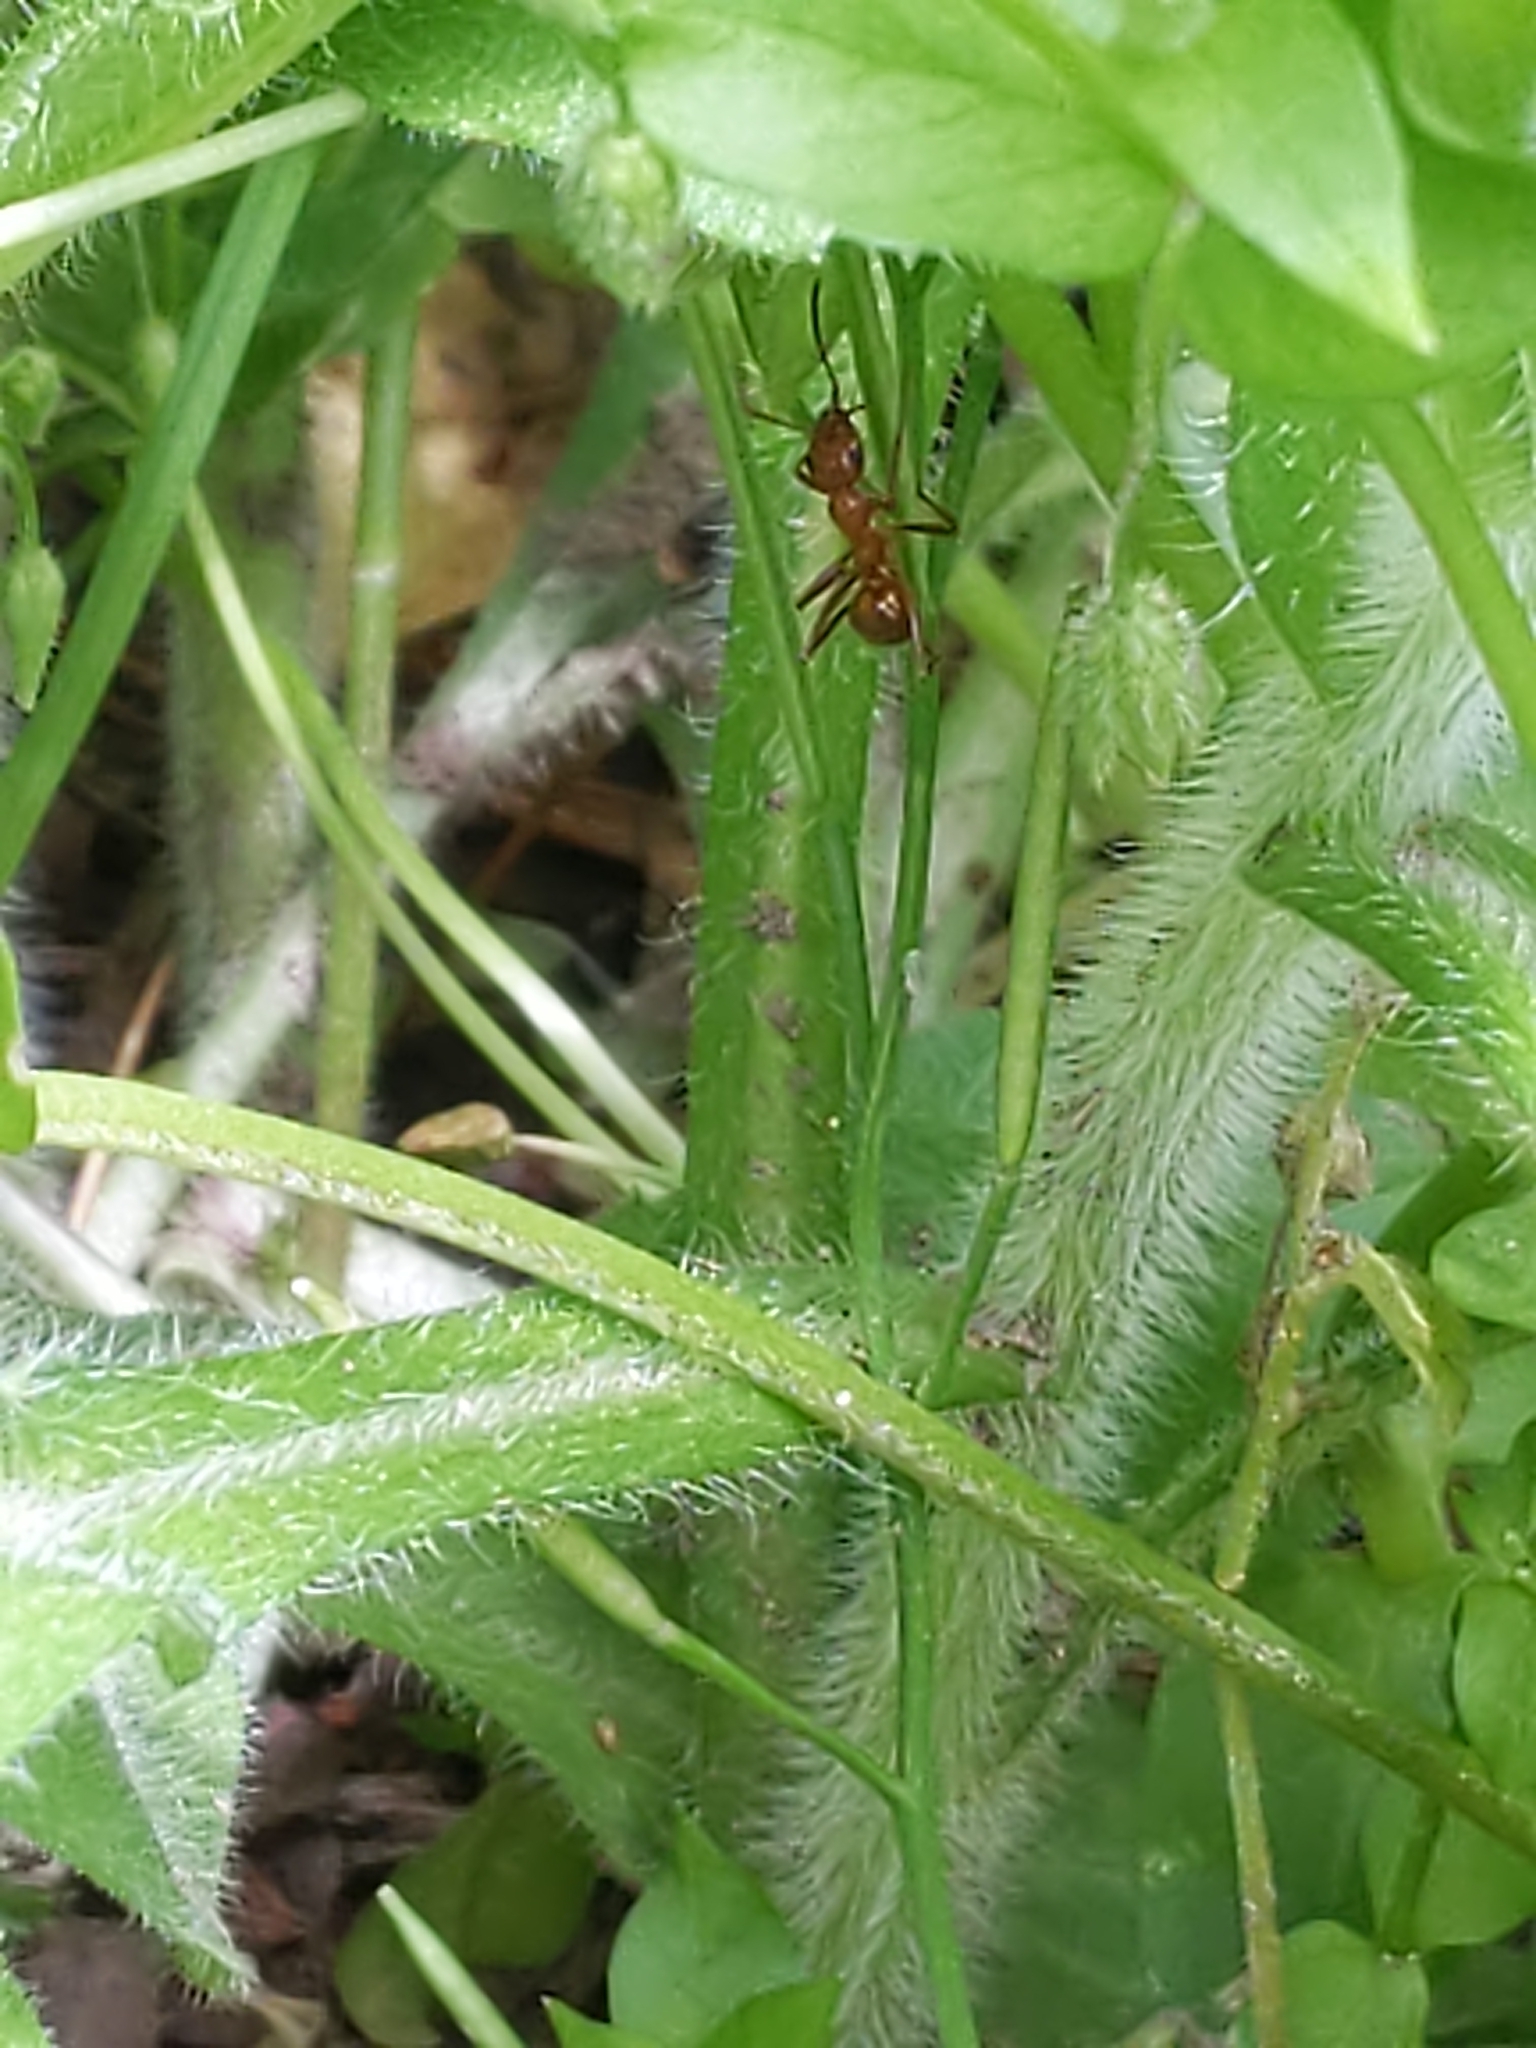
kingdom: Animalia
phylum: Arthropoda
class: Insecta
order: Hymenoptera
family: Formicidae
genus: Formica
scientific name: Formica
